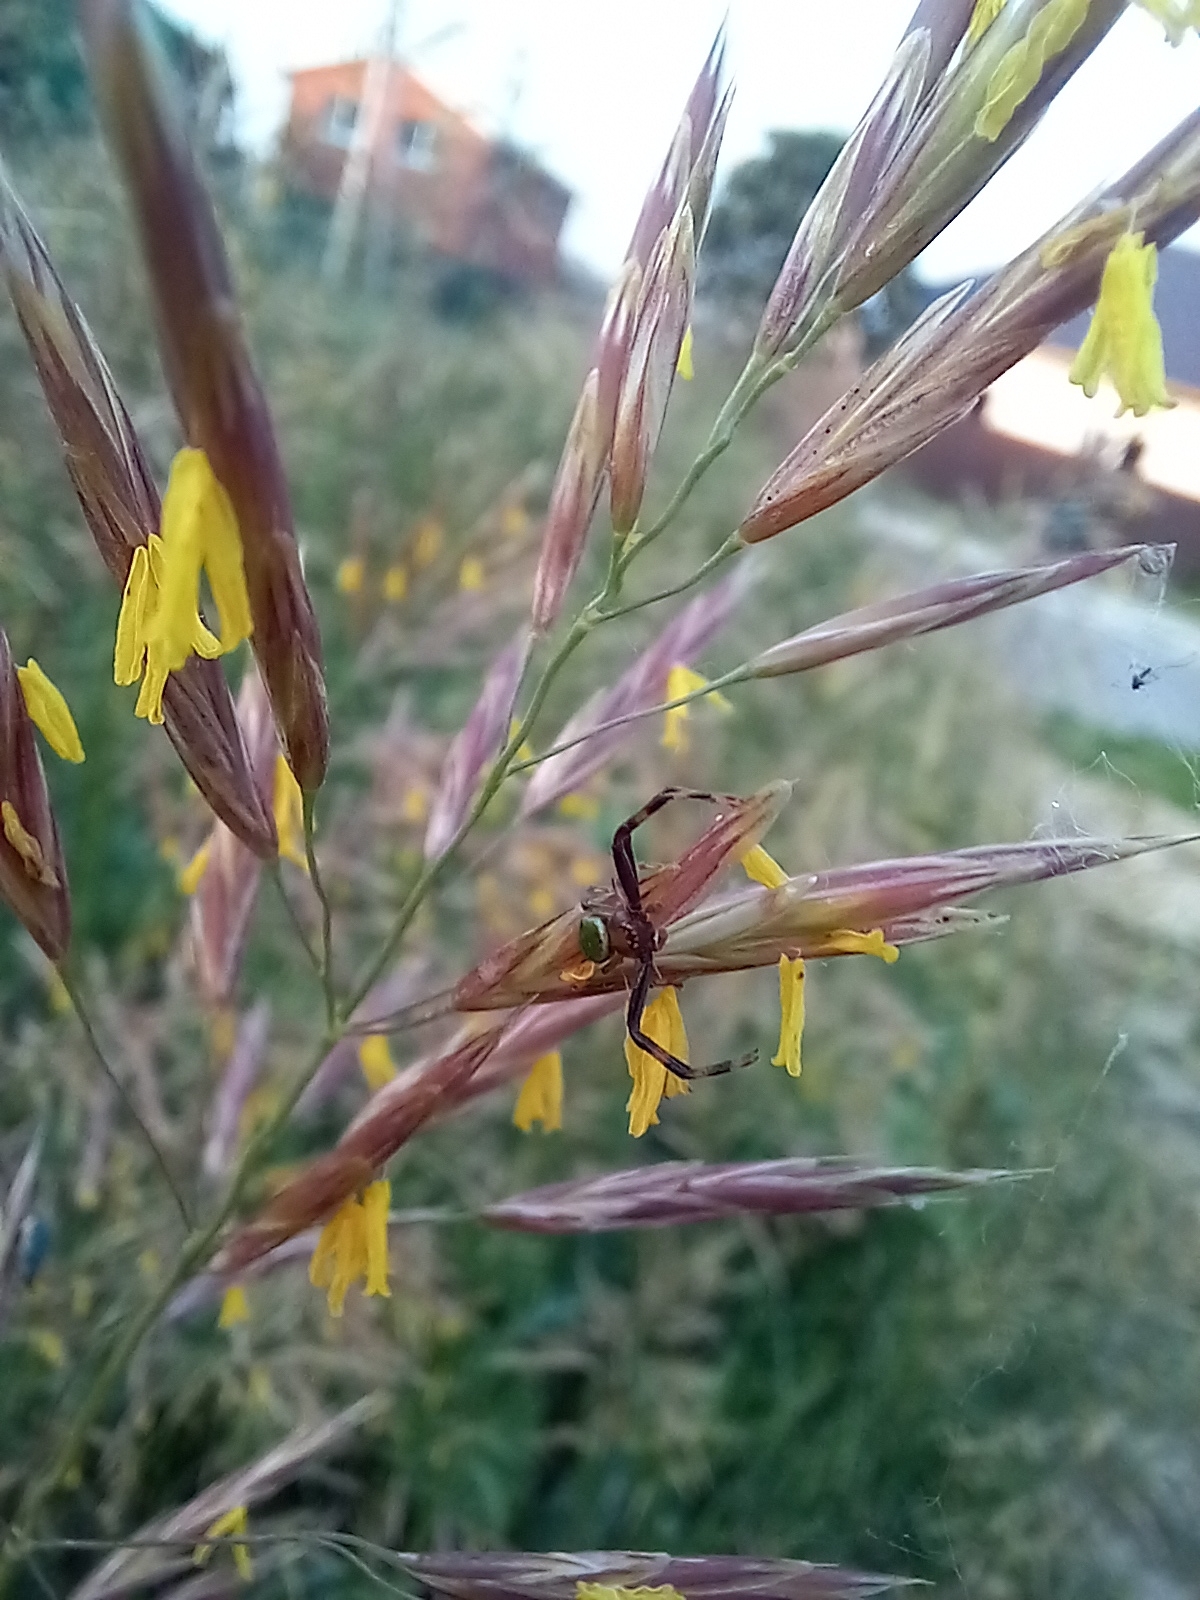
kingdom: Animalia
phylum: Arthropoda
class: Arachnida
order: Araneae
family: Thomisidae
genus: Ebrechtella
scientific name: Ebrechtella tricuspidata
